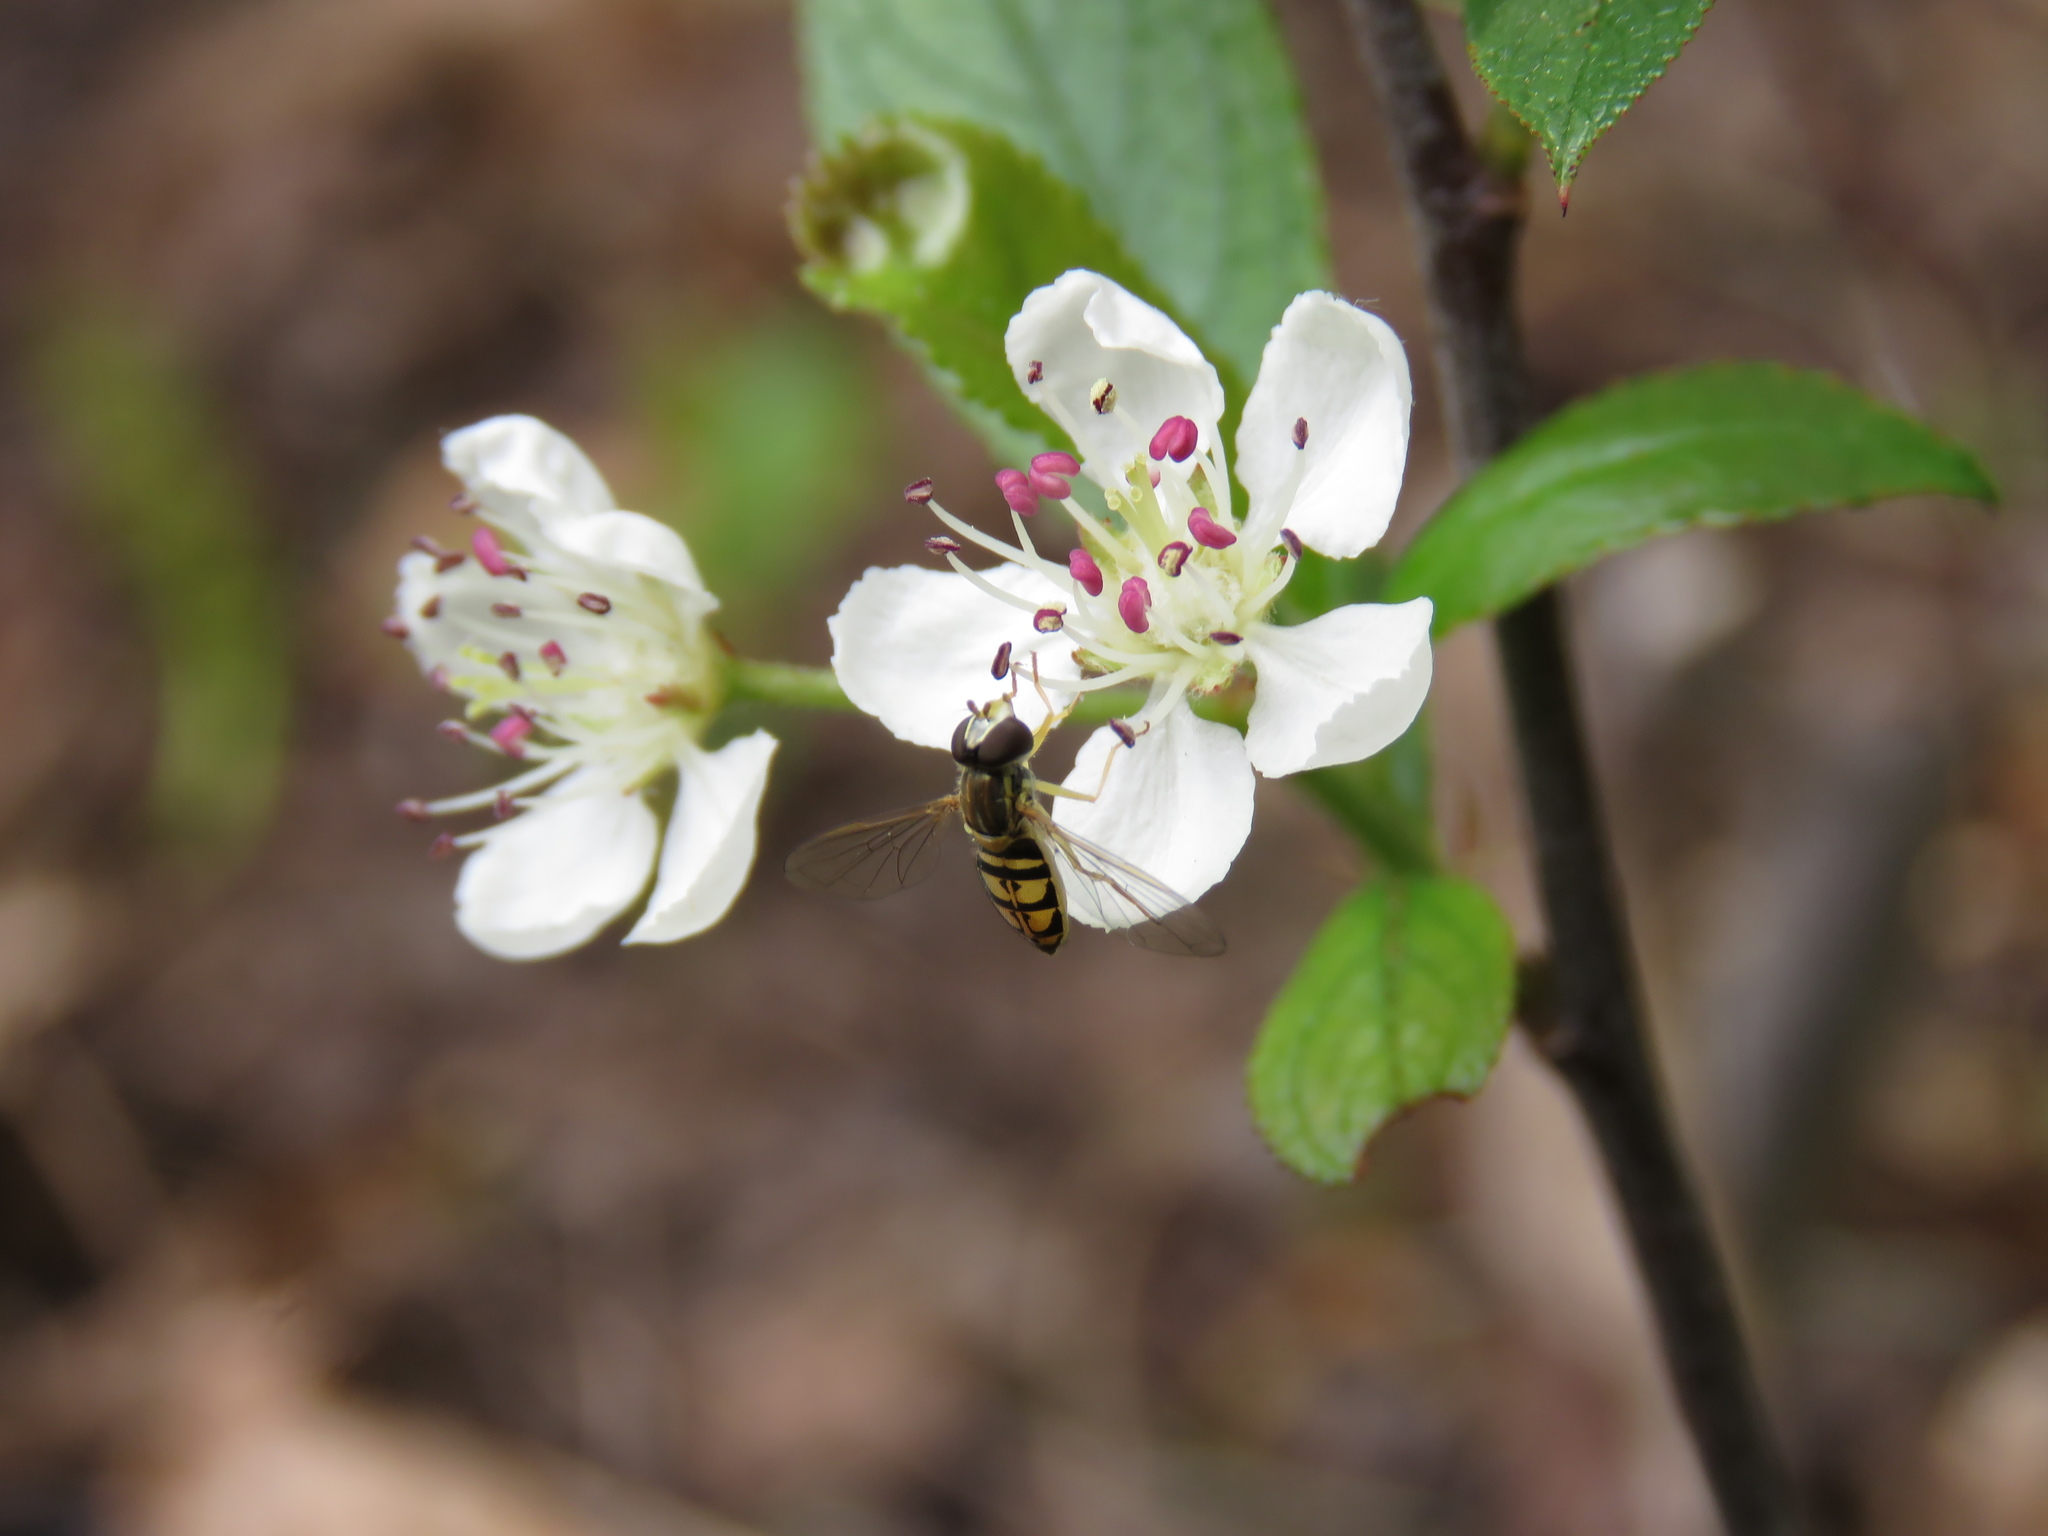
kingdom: Animalia
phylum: Arthropoda
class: Insecta
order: Diptera
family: Syrphidae
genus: Toxomerus
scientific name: Toxomerus marginatus
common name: Syrphid fly
